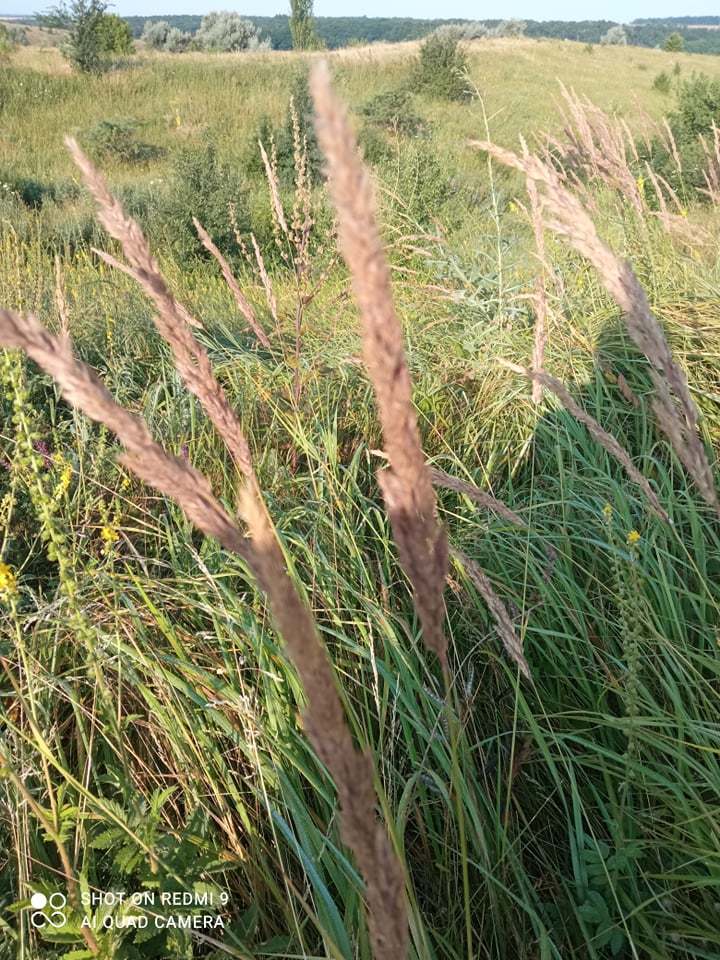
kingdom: Plantae
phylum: Tracheophyta
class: Liliopsida
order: Poales
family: Poaceae
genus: Calamagrostis
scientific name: Calamagrostis epigejos
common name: Wood small-reed
